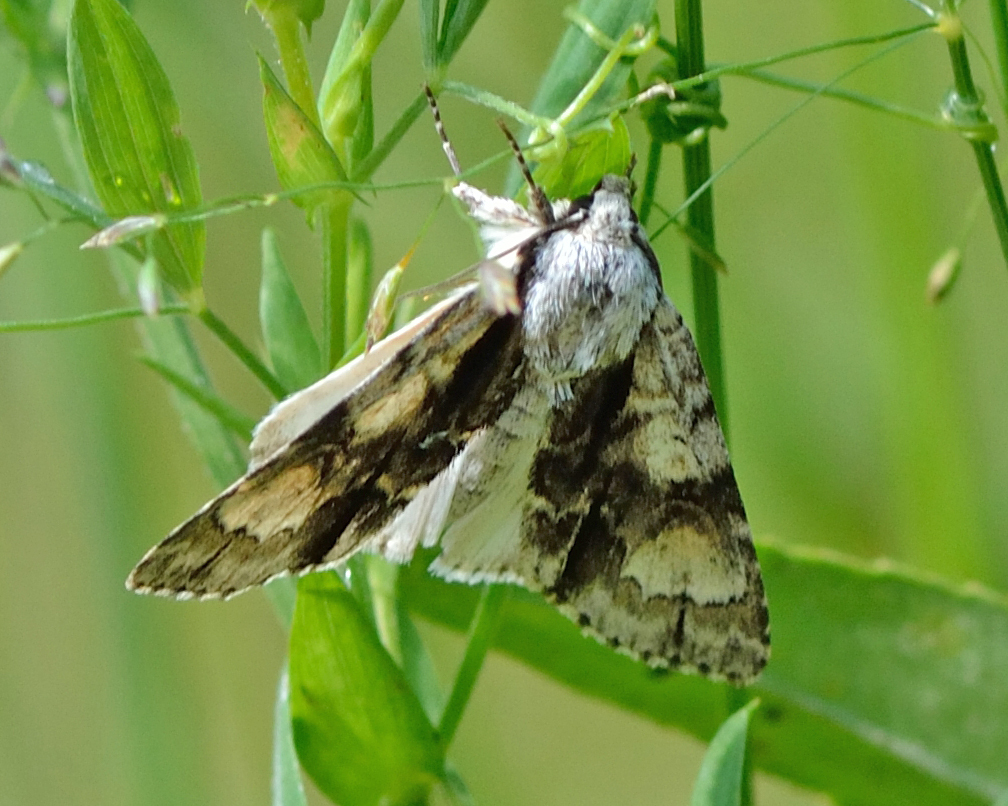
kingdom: Animalia
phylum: Arthropoda
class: Insecta
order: Lepidoptera
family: Noctuidae
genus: Acronicta
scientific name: Acronicta alni
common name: Alder moth
